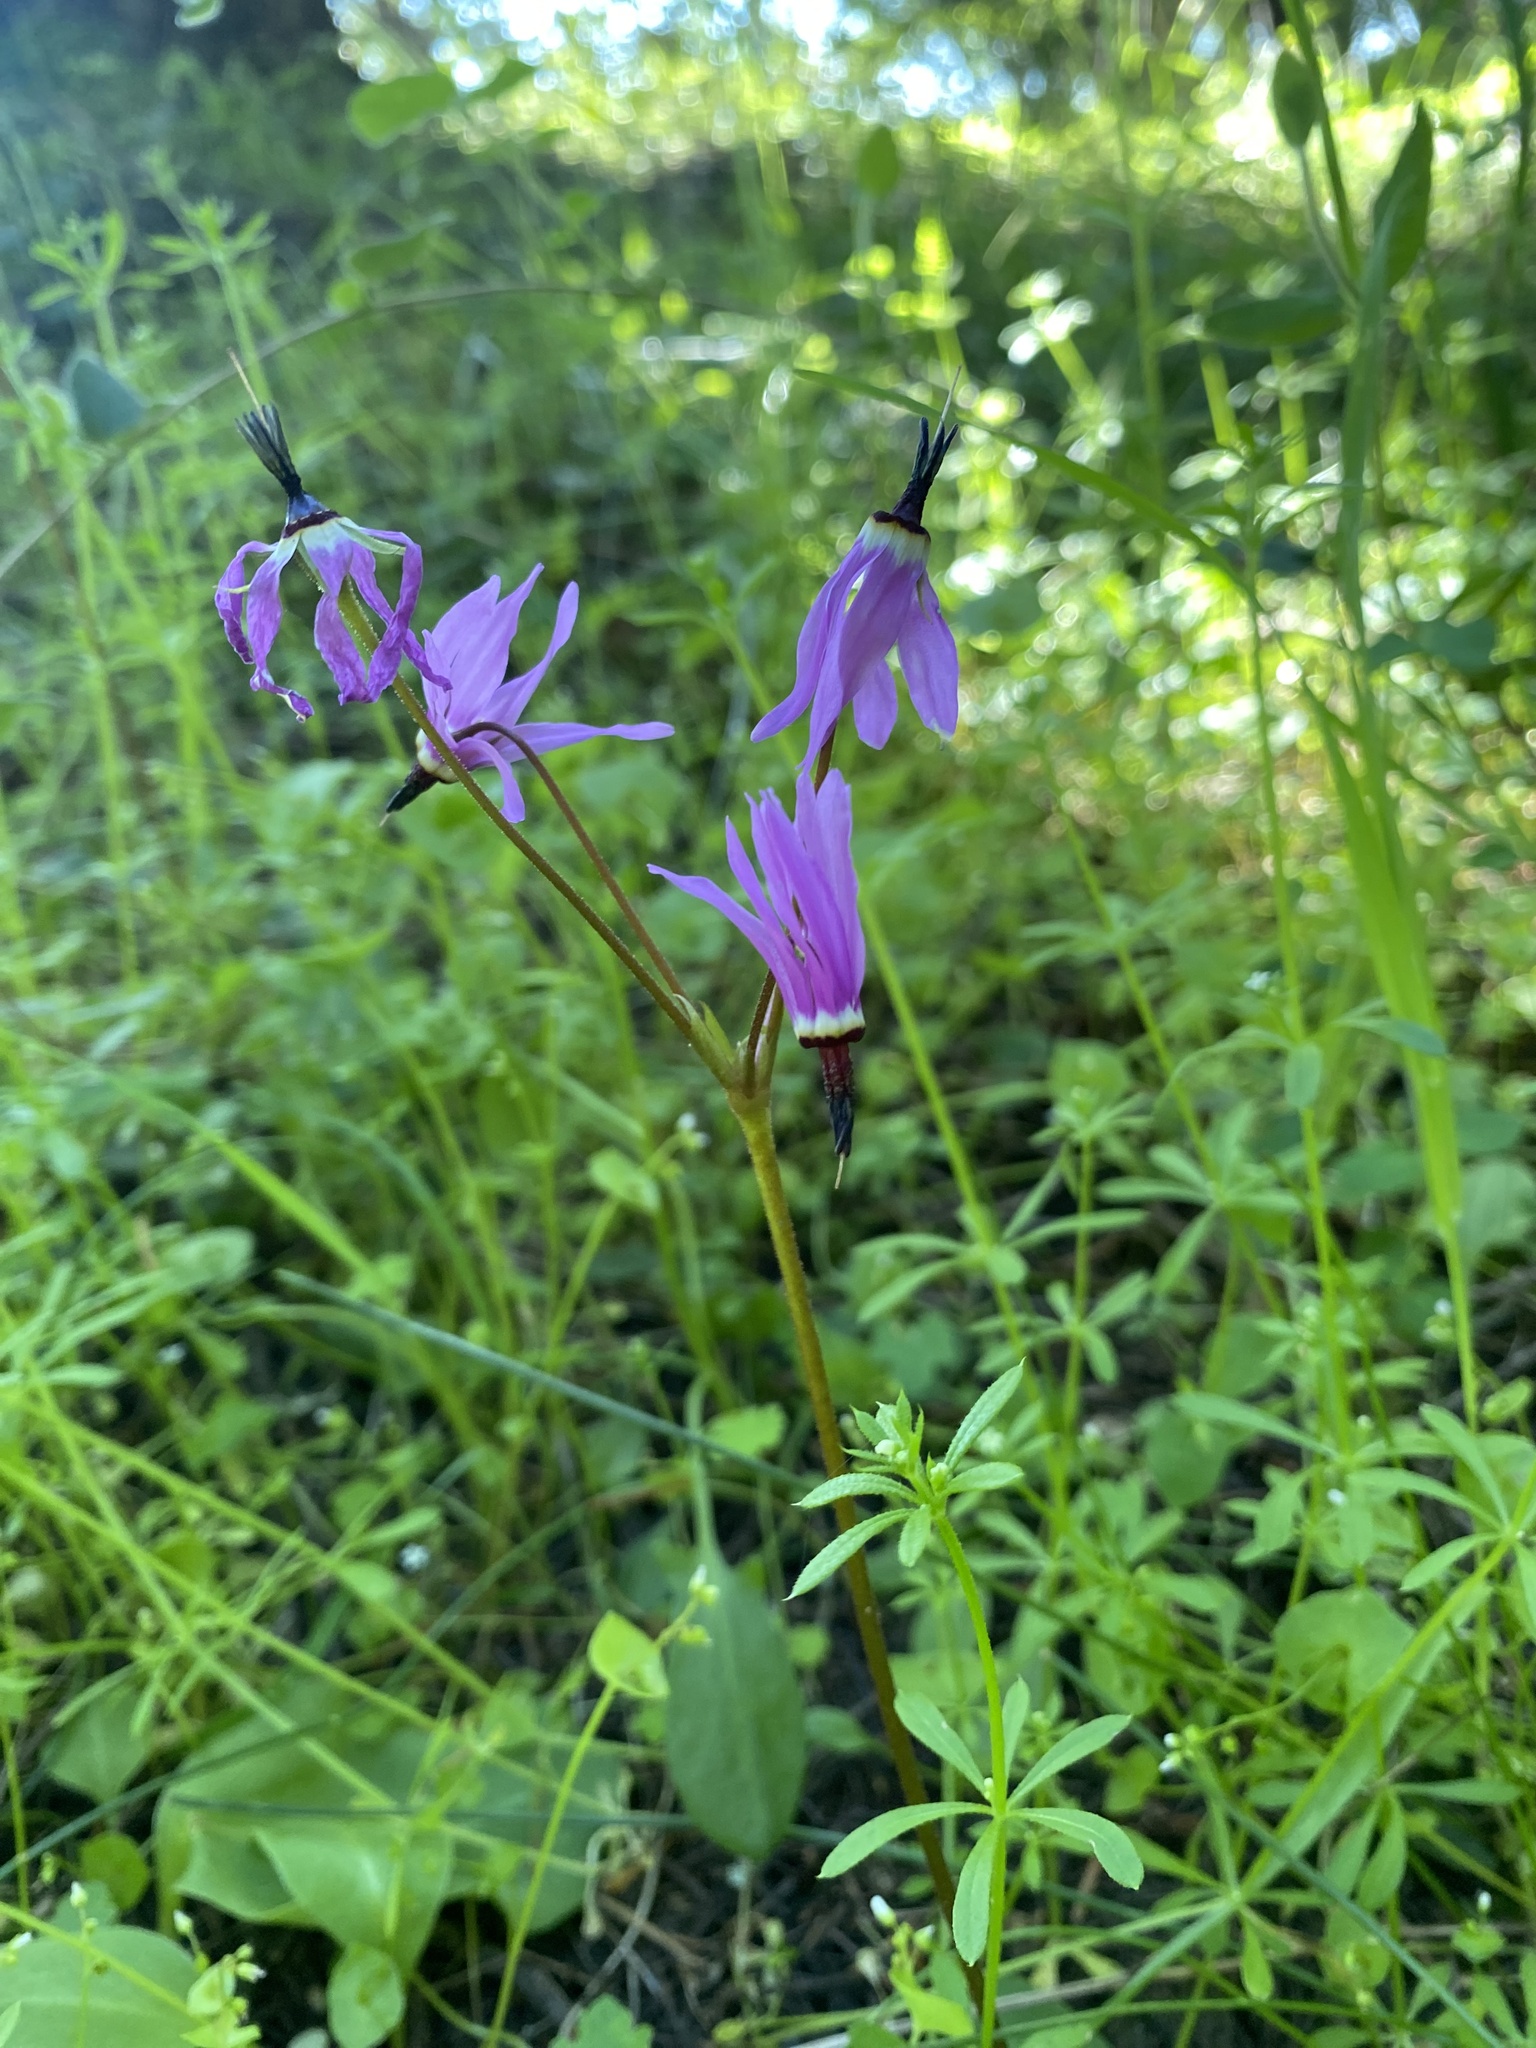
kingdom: Plantae
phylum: Tracheophyta
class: Magnoliopsida
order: Ericales
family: Primulaceae
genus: Dodecatheon
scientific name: Dodecatheon hendersonii
